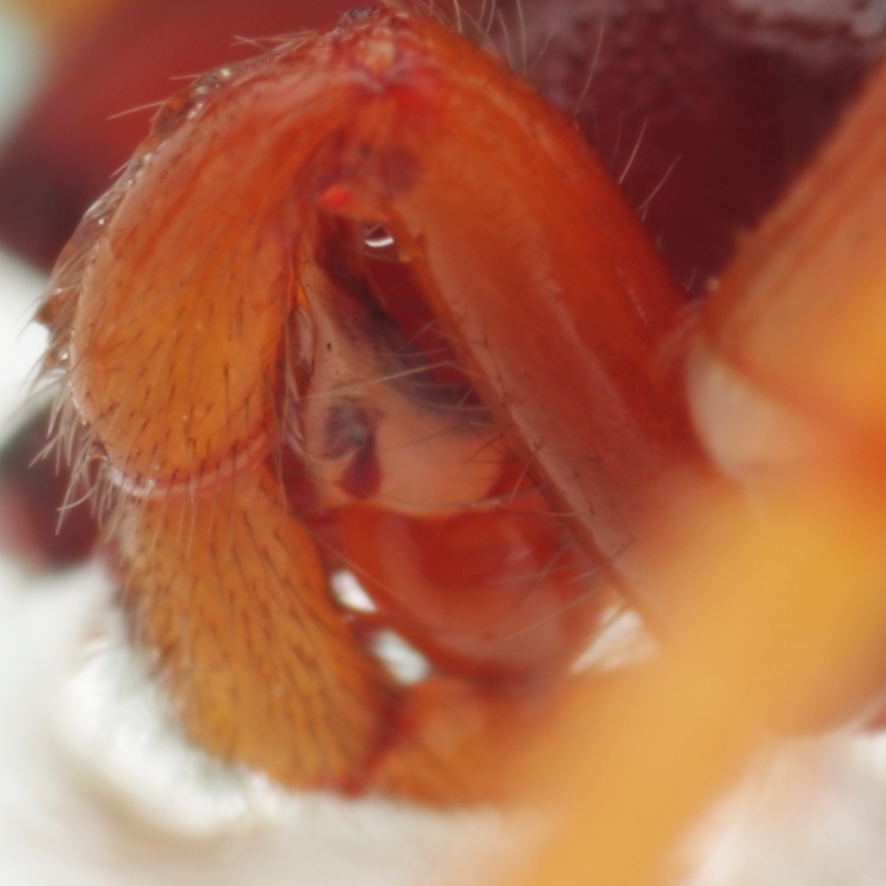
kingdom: Animalia
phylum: Arthropoda
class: Arachnida
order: Araneae
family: Dysderidae
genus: Dysdera
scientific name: Dysdera crocata
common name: Woodlouse spider
